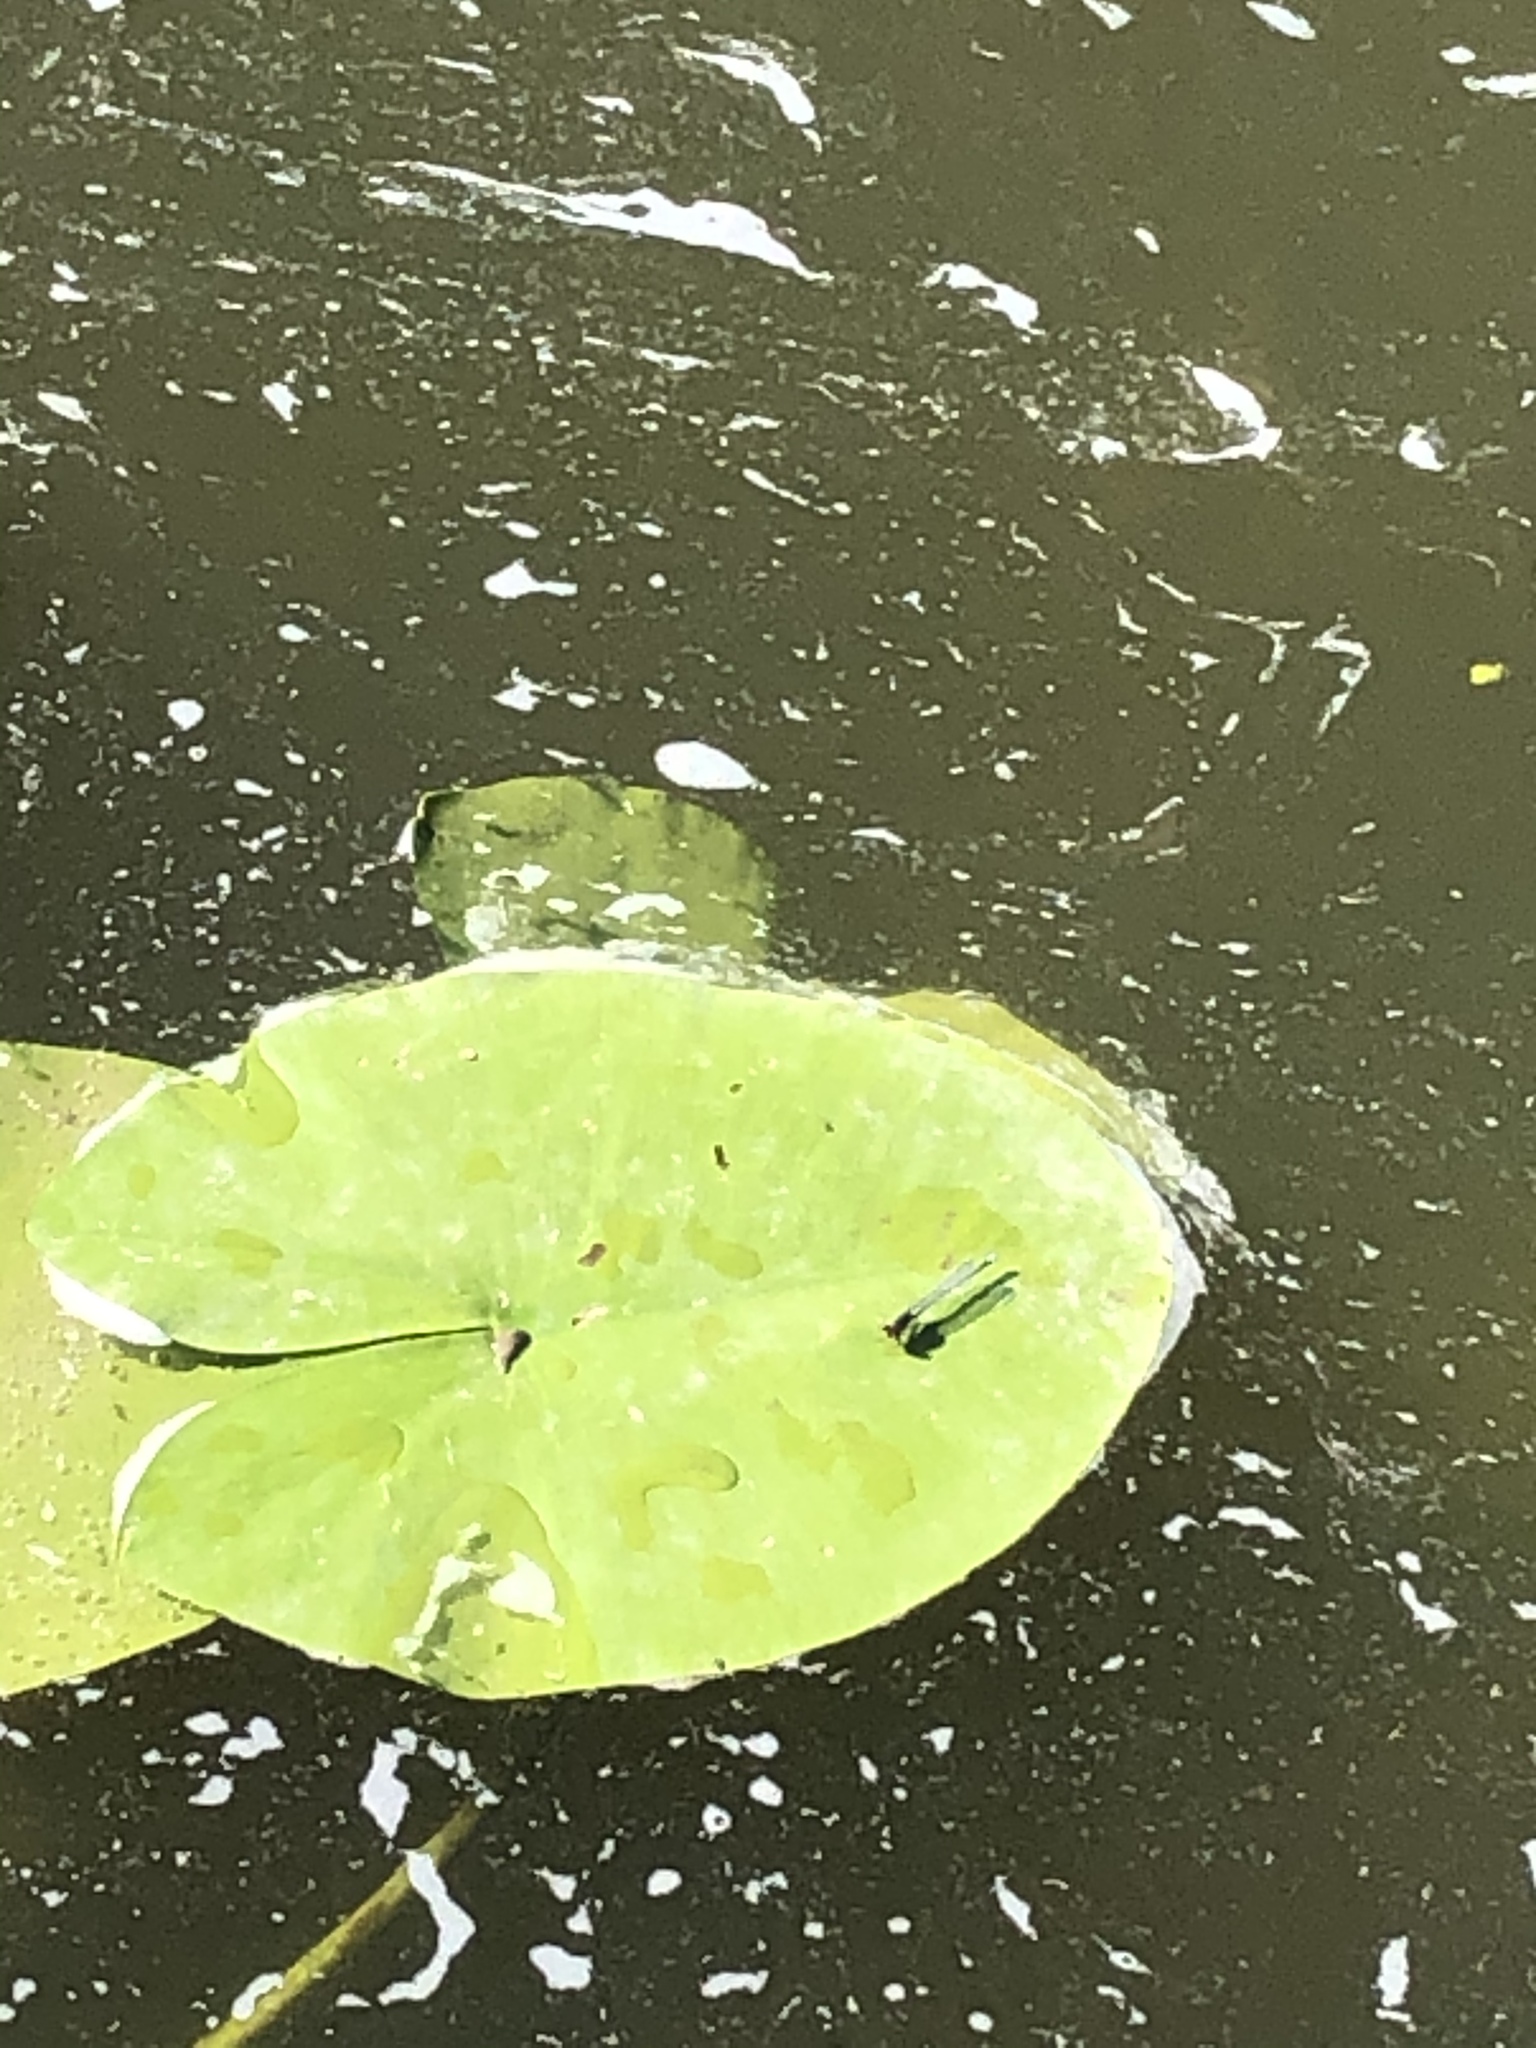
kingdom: Plantae
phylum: Tracheophyta
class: Magnoliopsida
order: Nymphaeales
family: Nymphaeaceae
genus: Nuphar
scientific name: Nuphar lutea
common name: Yellow water-lily
